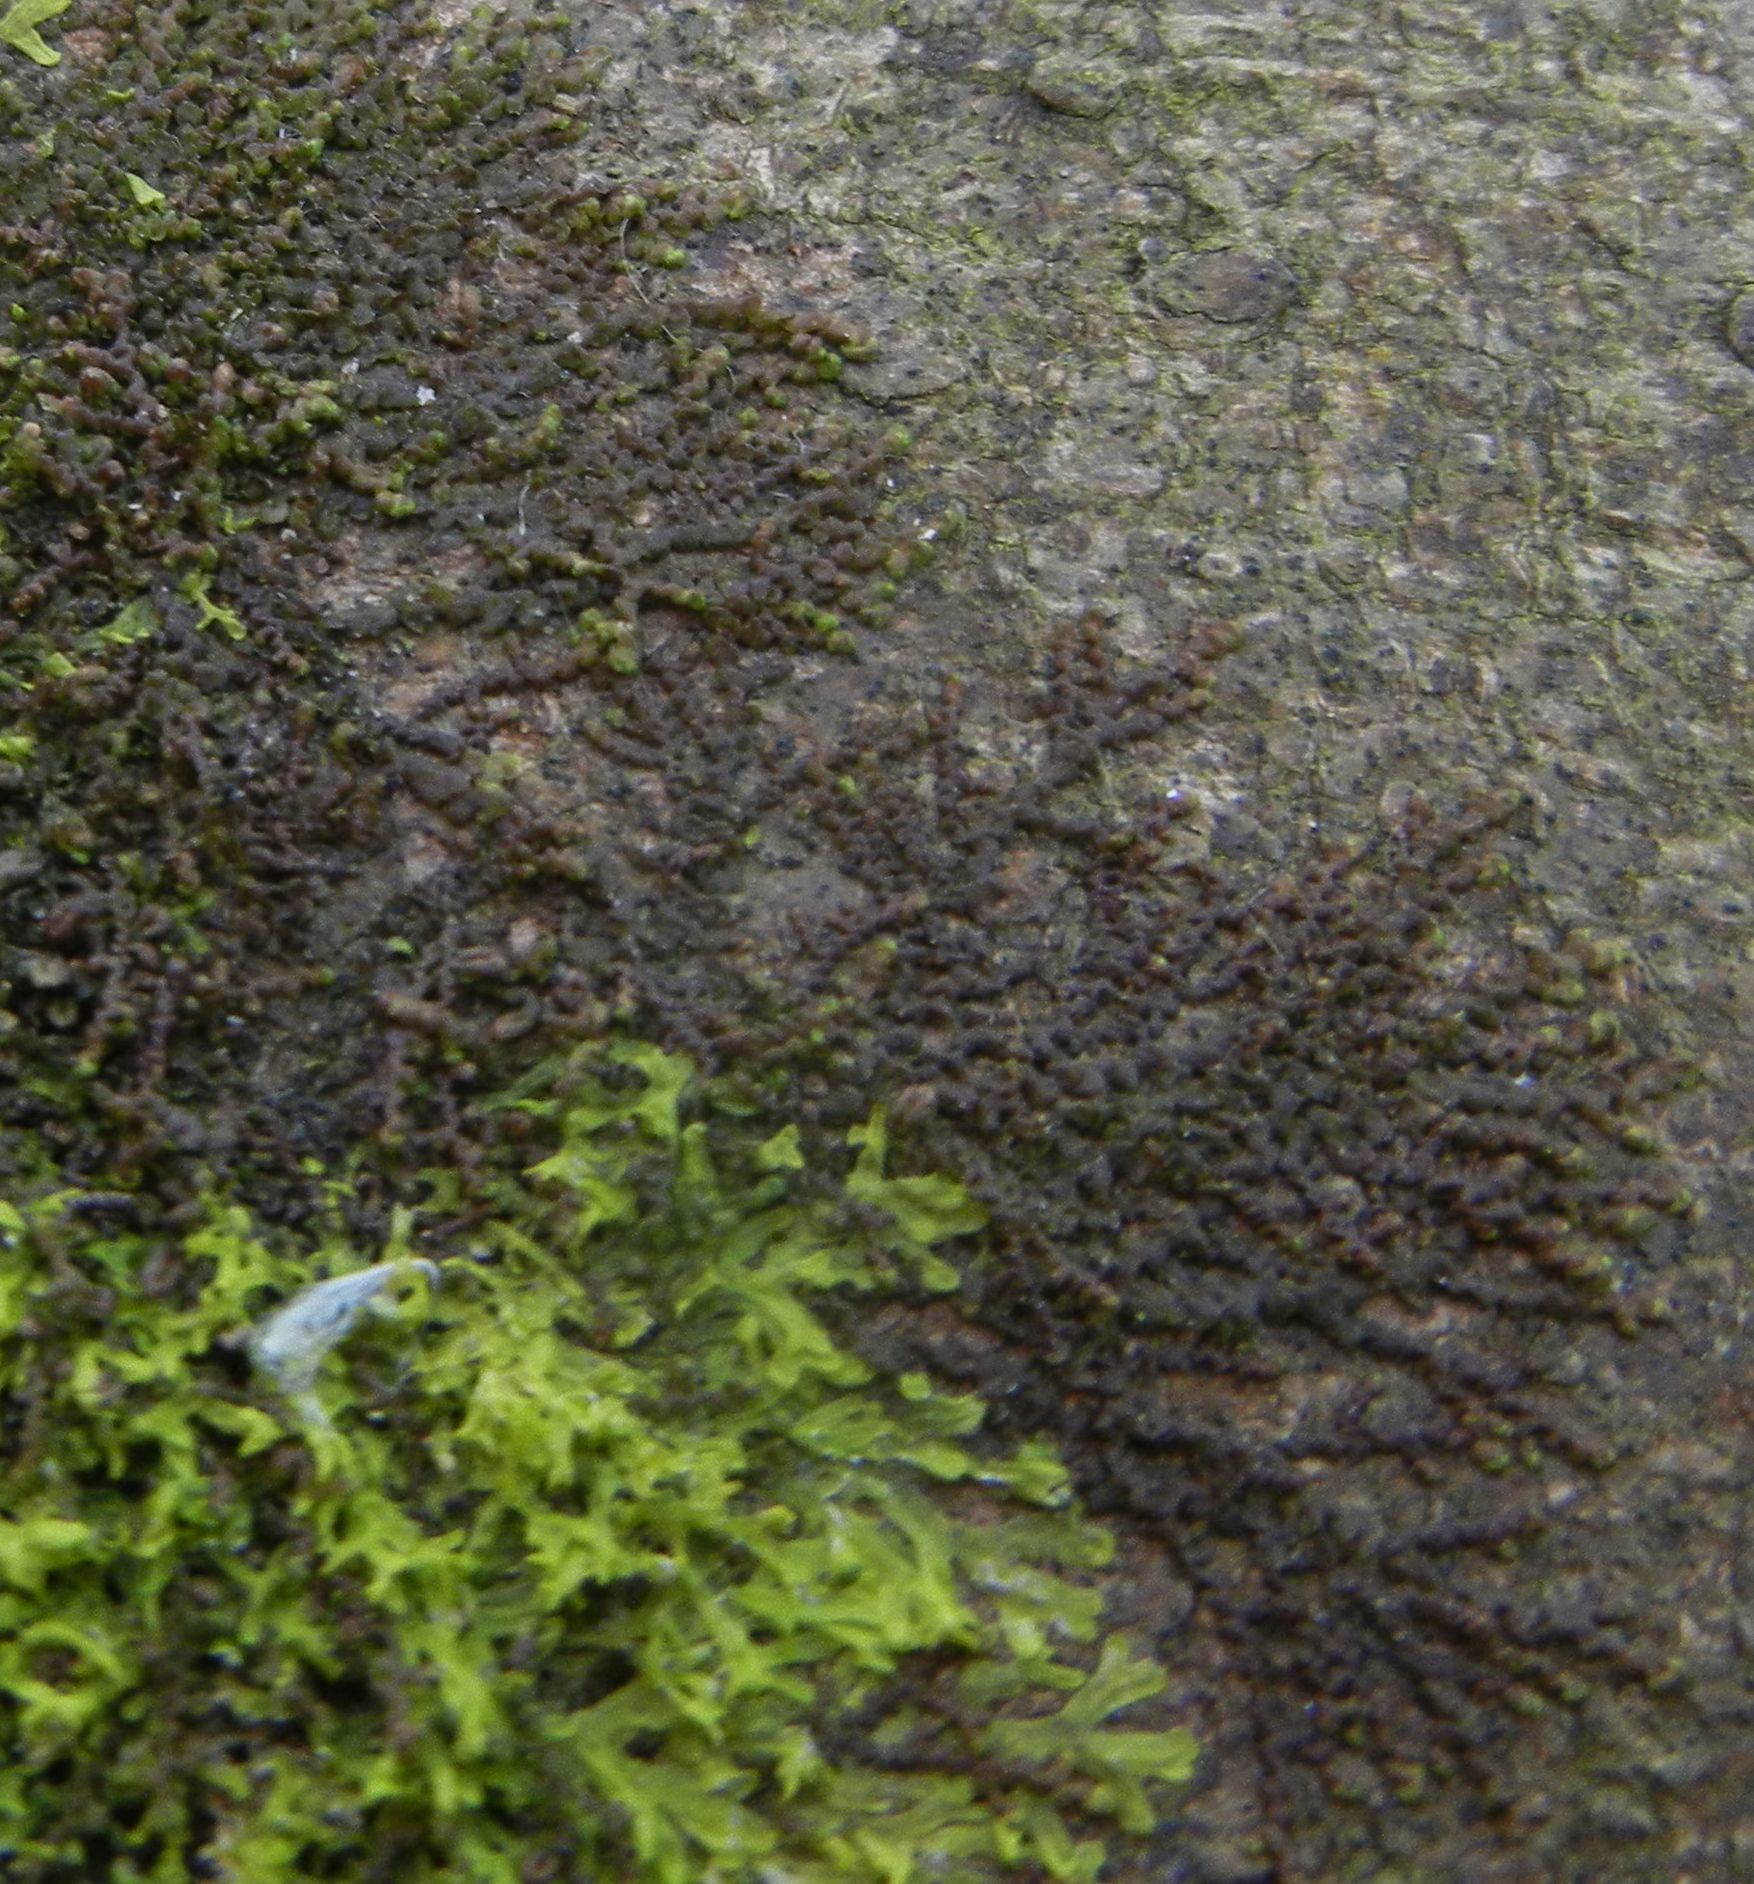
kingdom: Plantae
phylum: Marchantiophyta
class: Jungermanniopsida
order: Porellales
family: Frullaniaceae
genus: Frullania
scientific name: Frullania dilatata
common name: Dilated scalewort
